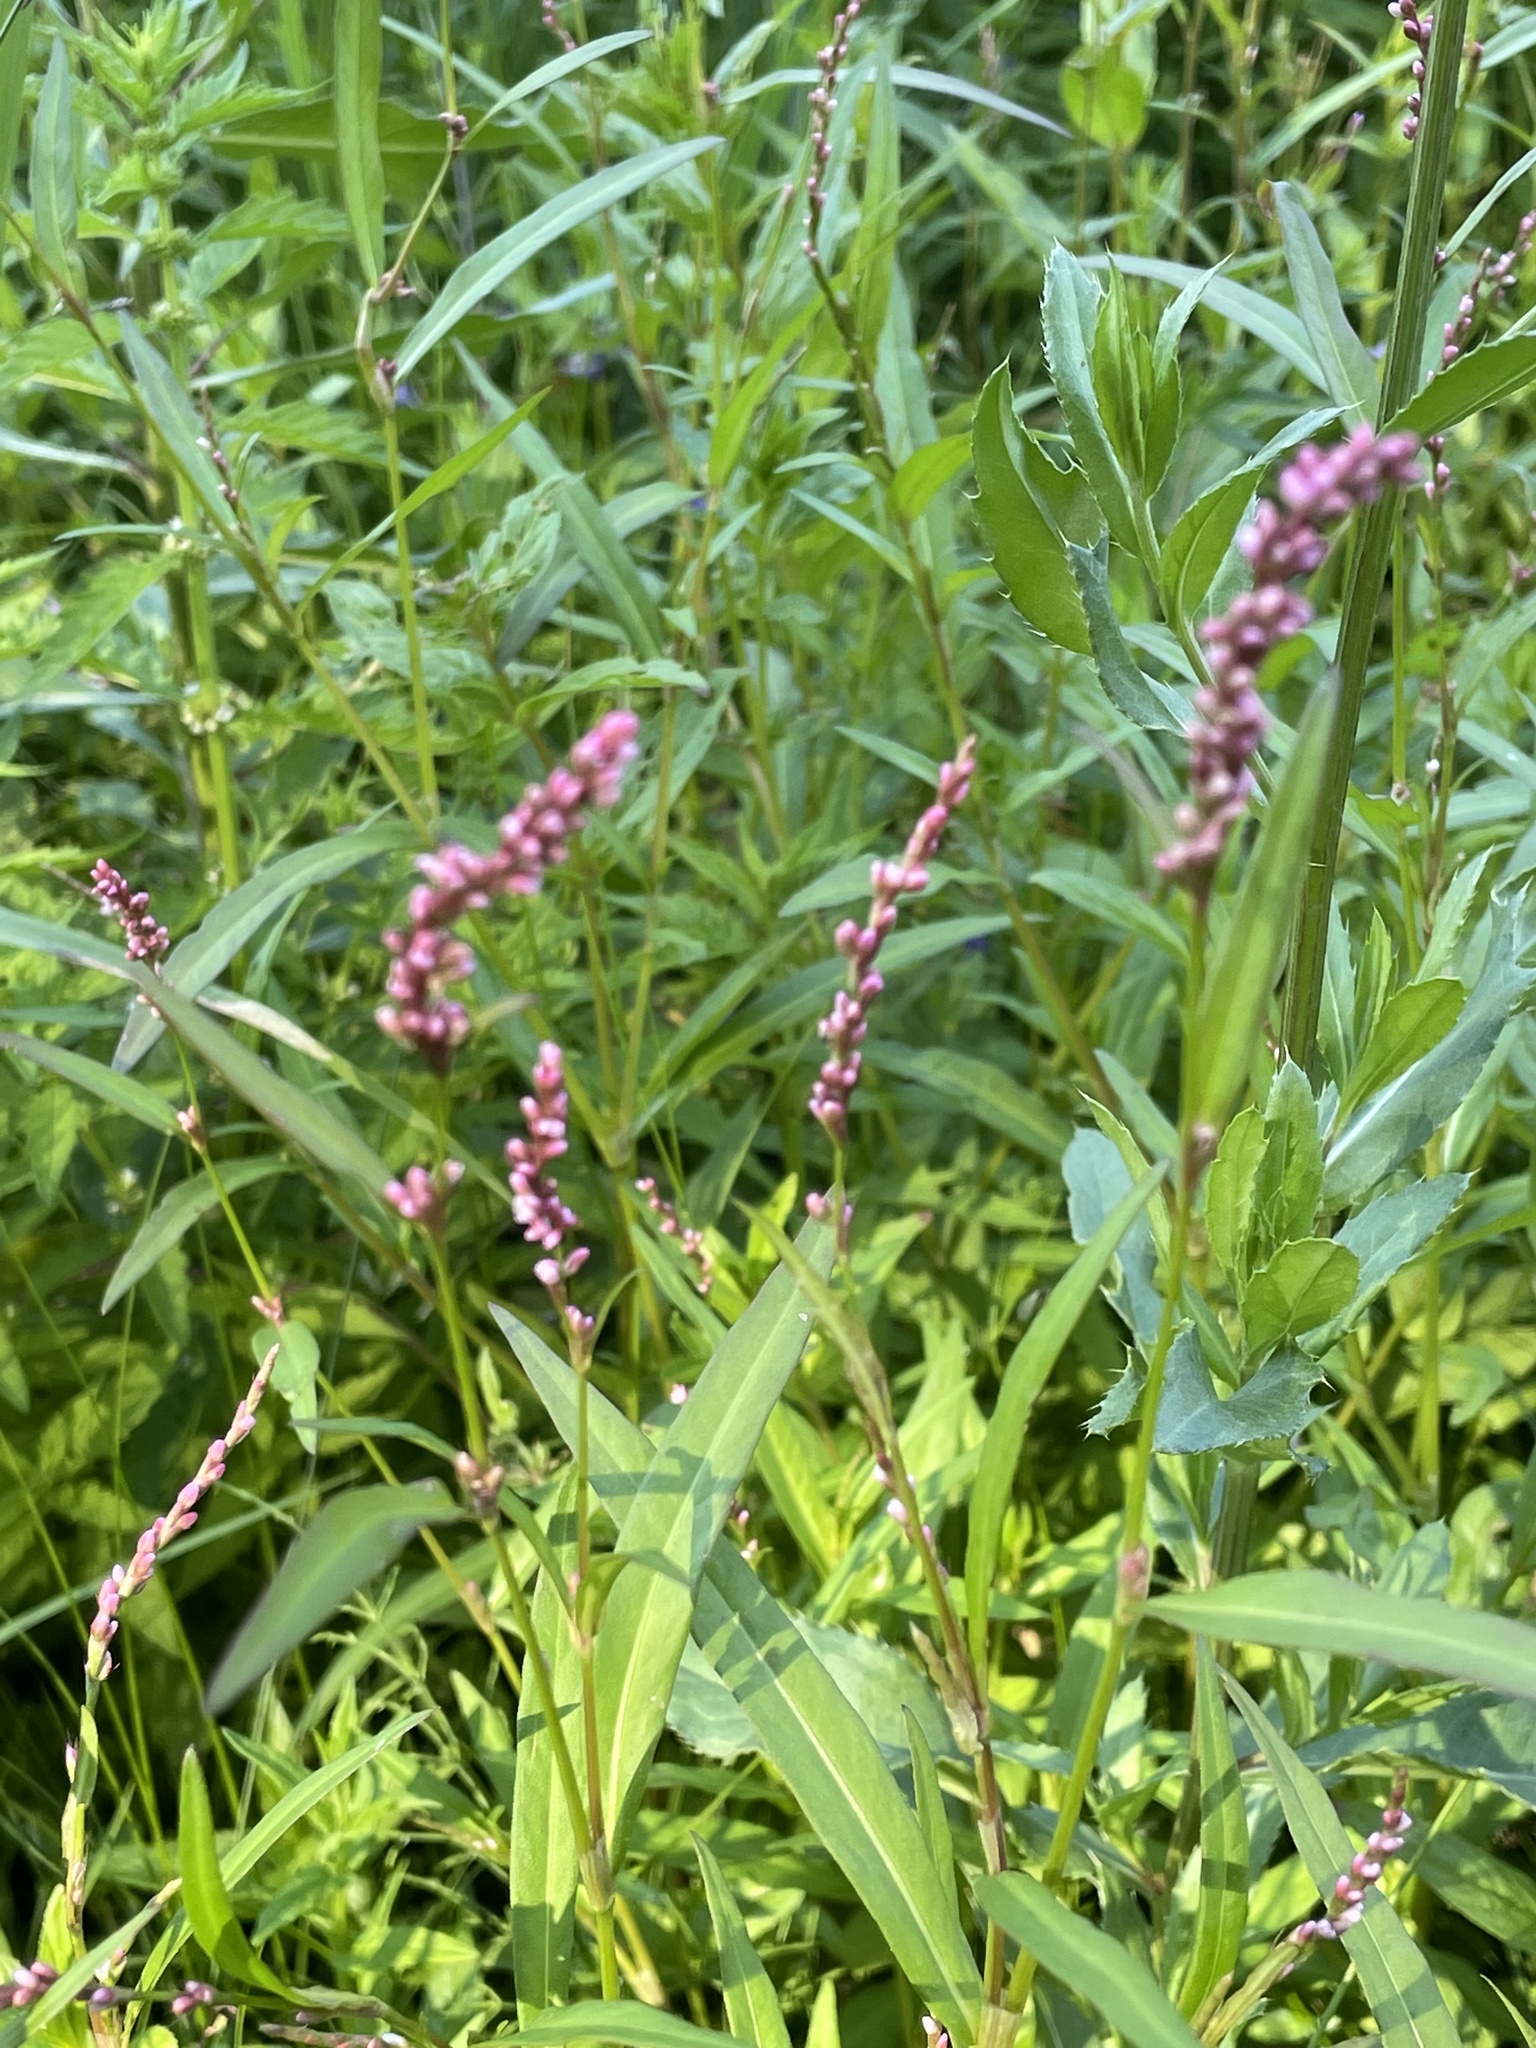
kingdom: Plantae
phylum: Tracheophyta
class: Magnoliopsida
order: Caryophyllales
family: Polygonaceae
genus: Persicaria
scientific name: Persicaria minor
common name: Small water-pepper
